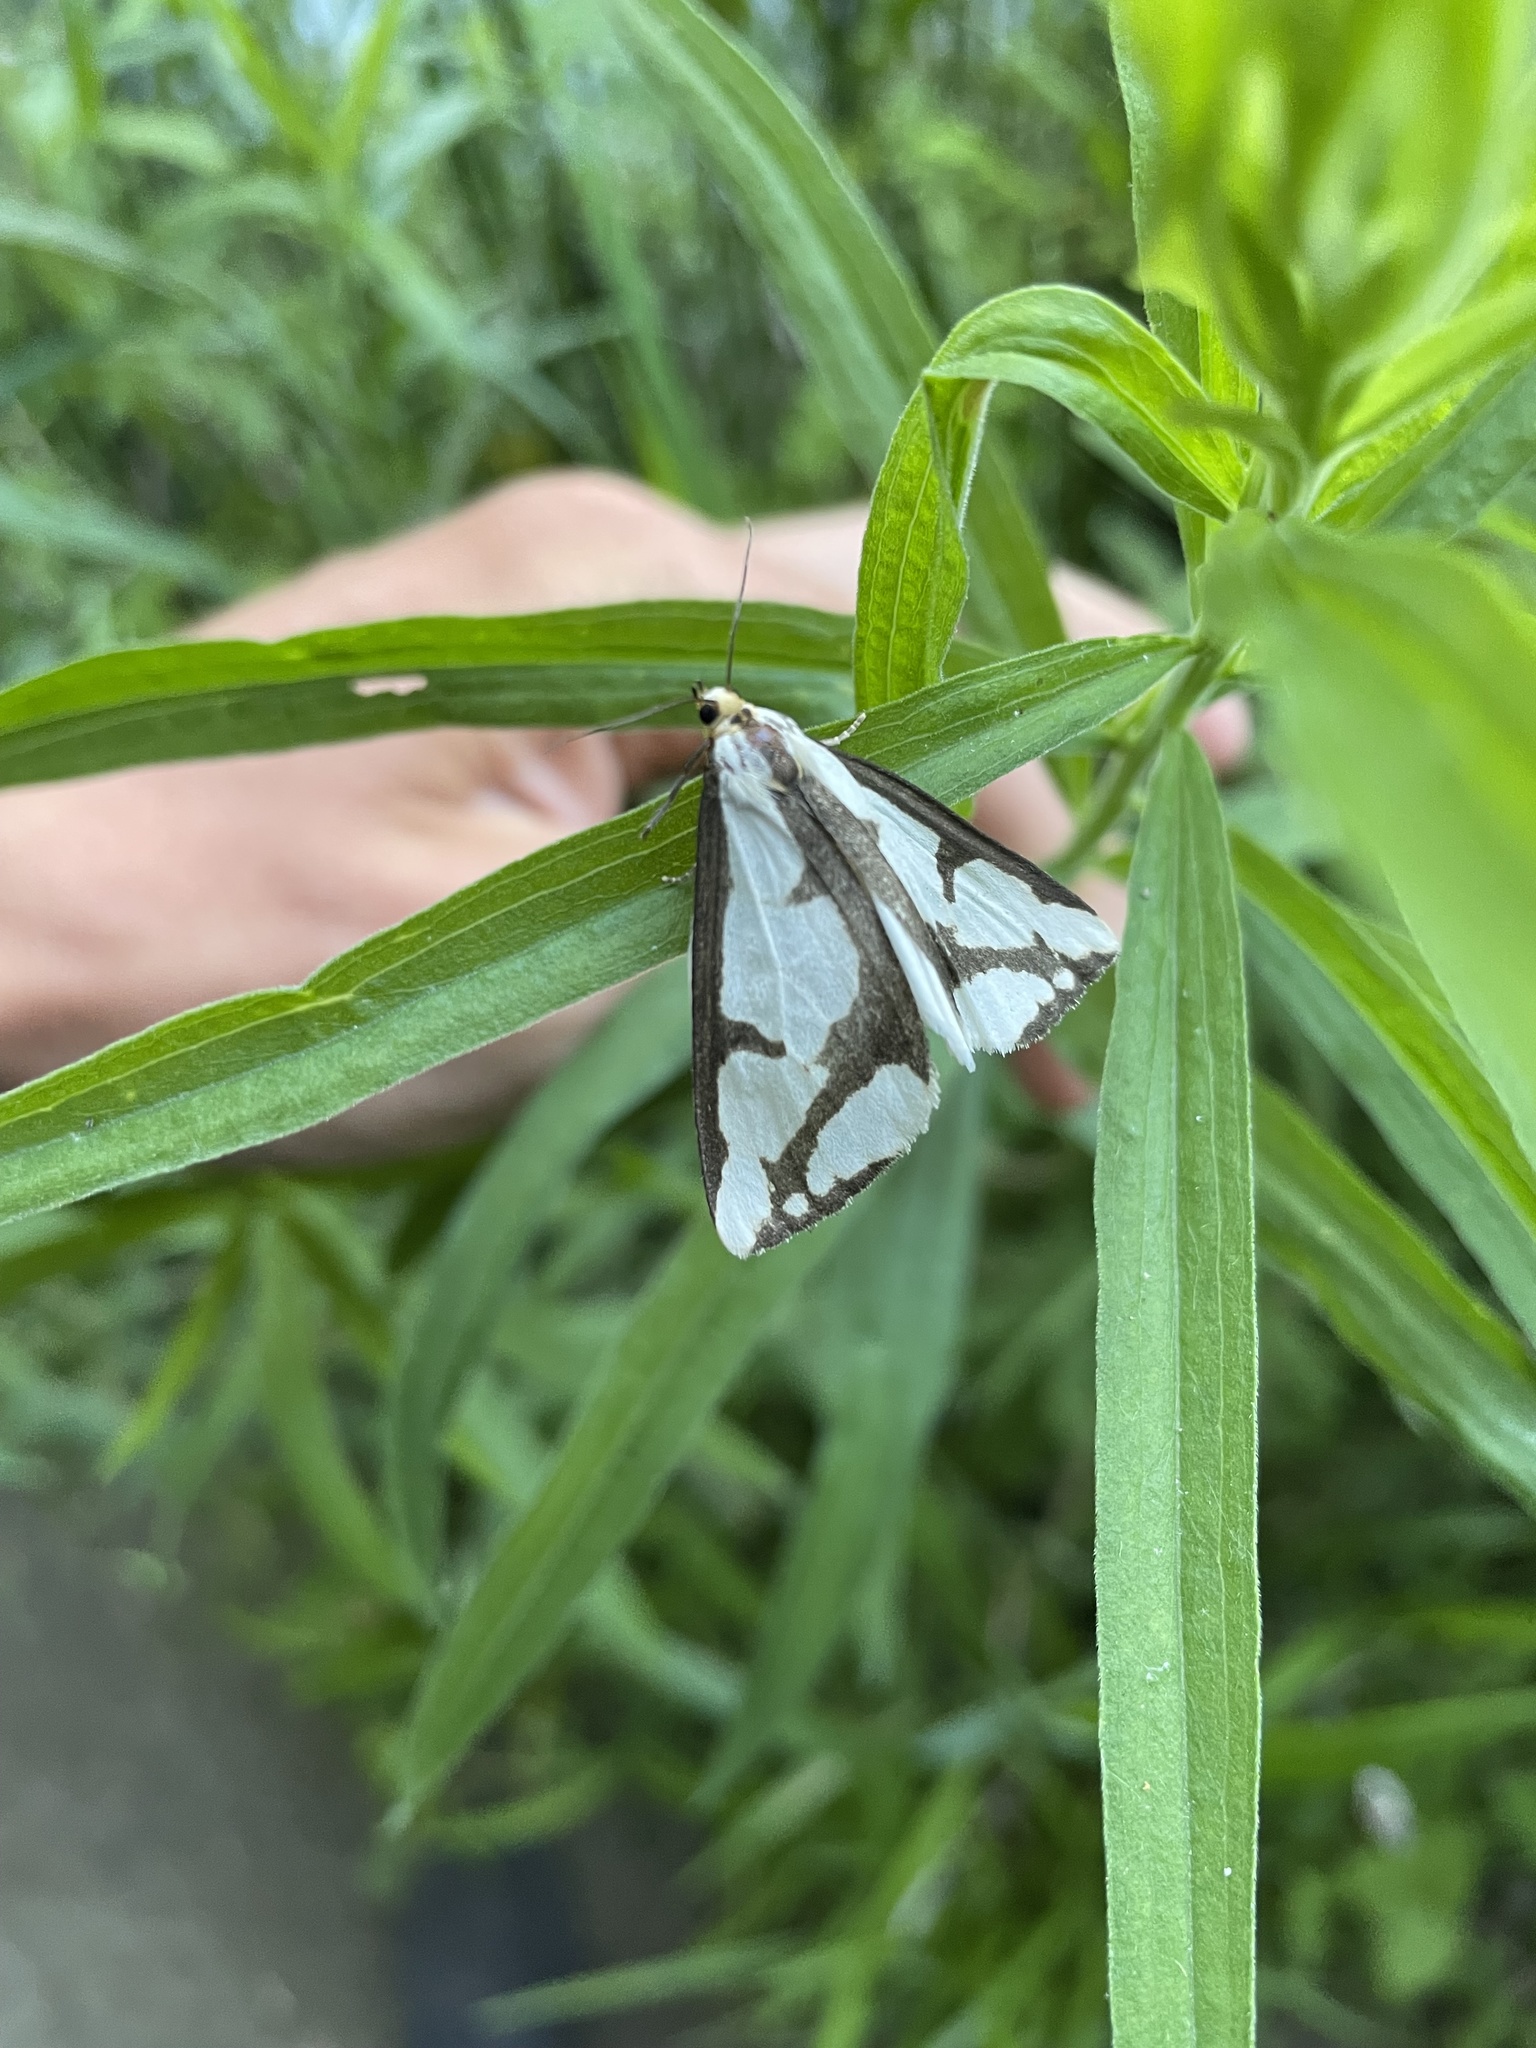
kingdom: Animalia
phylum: Arthropoda
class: Insecta
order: Lepidoptera
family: Erebidae
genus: Haploa
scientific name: Haploa lecontei
